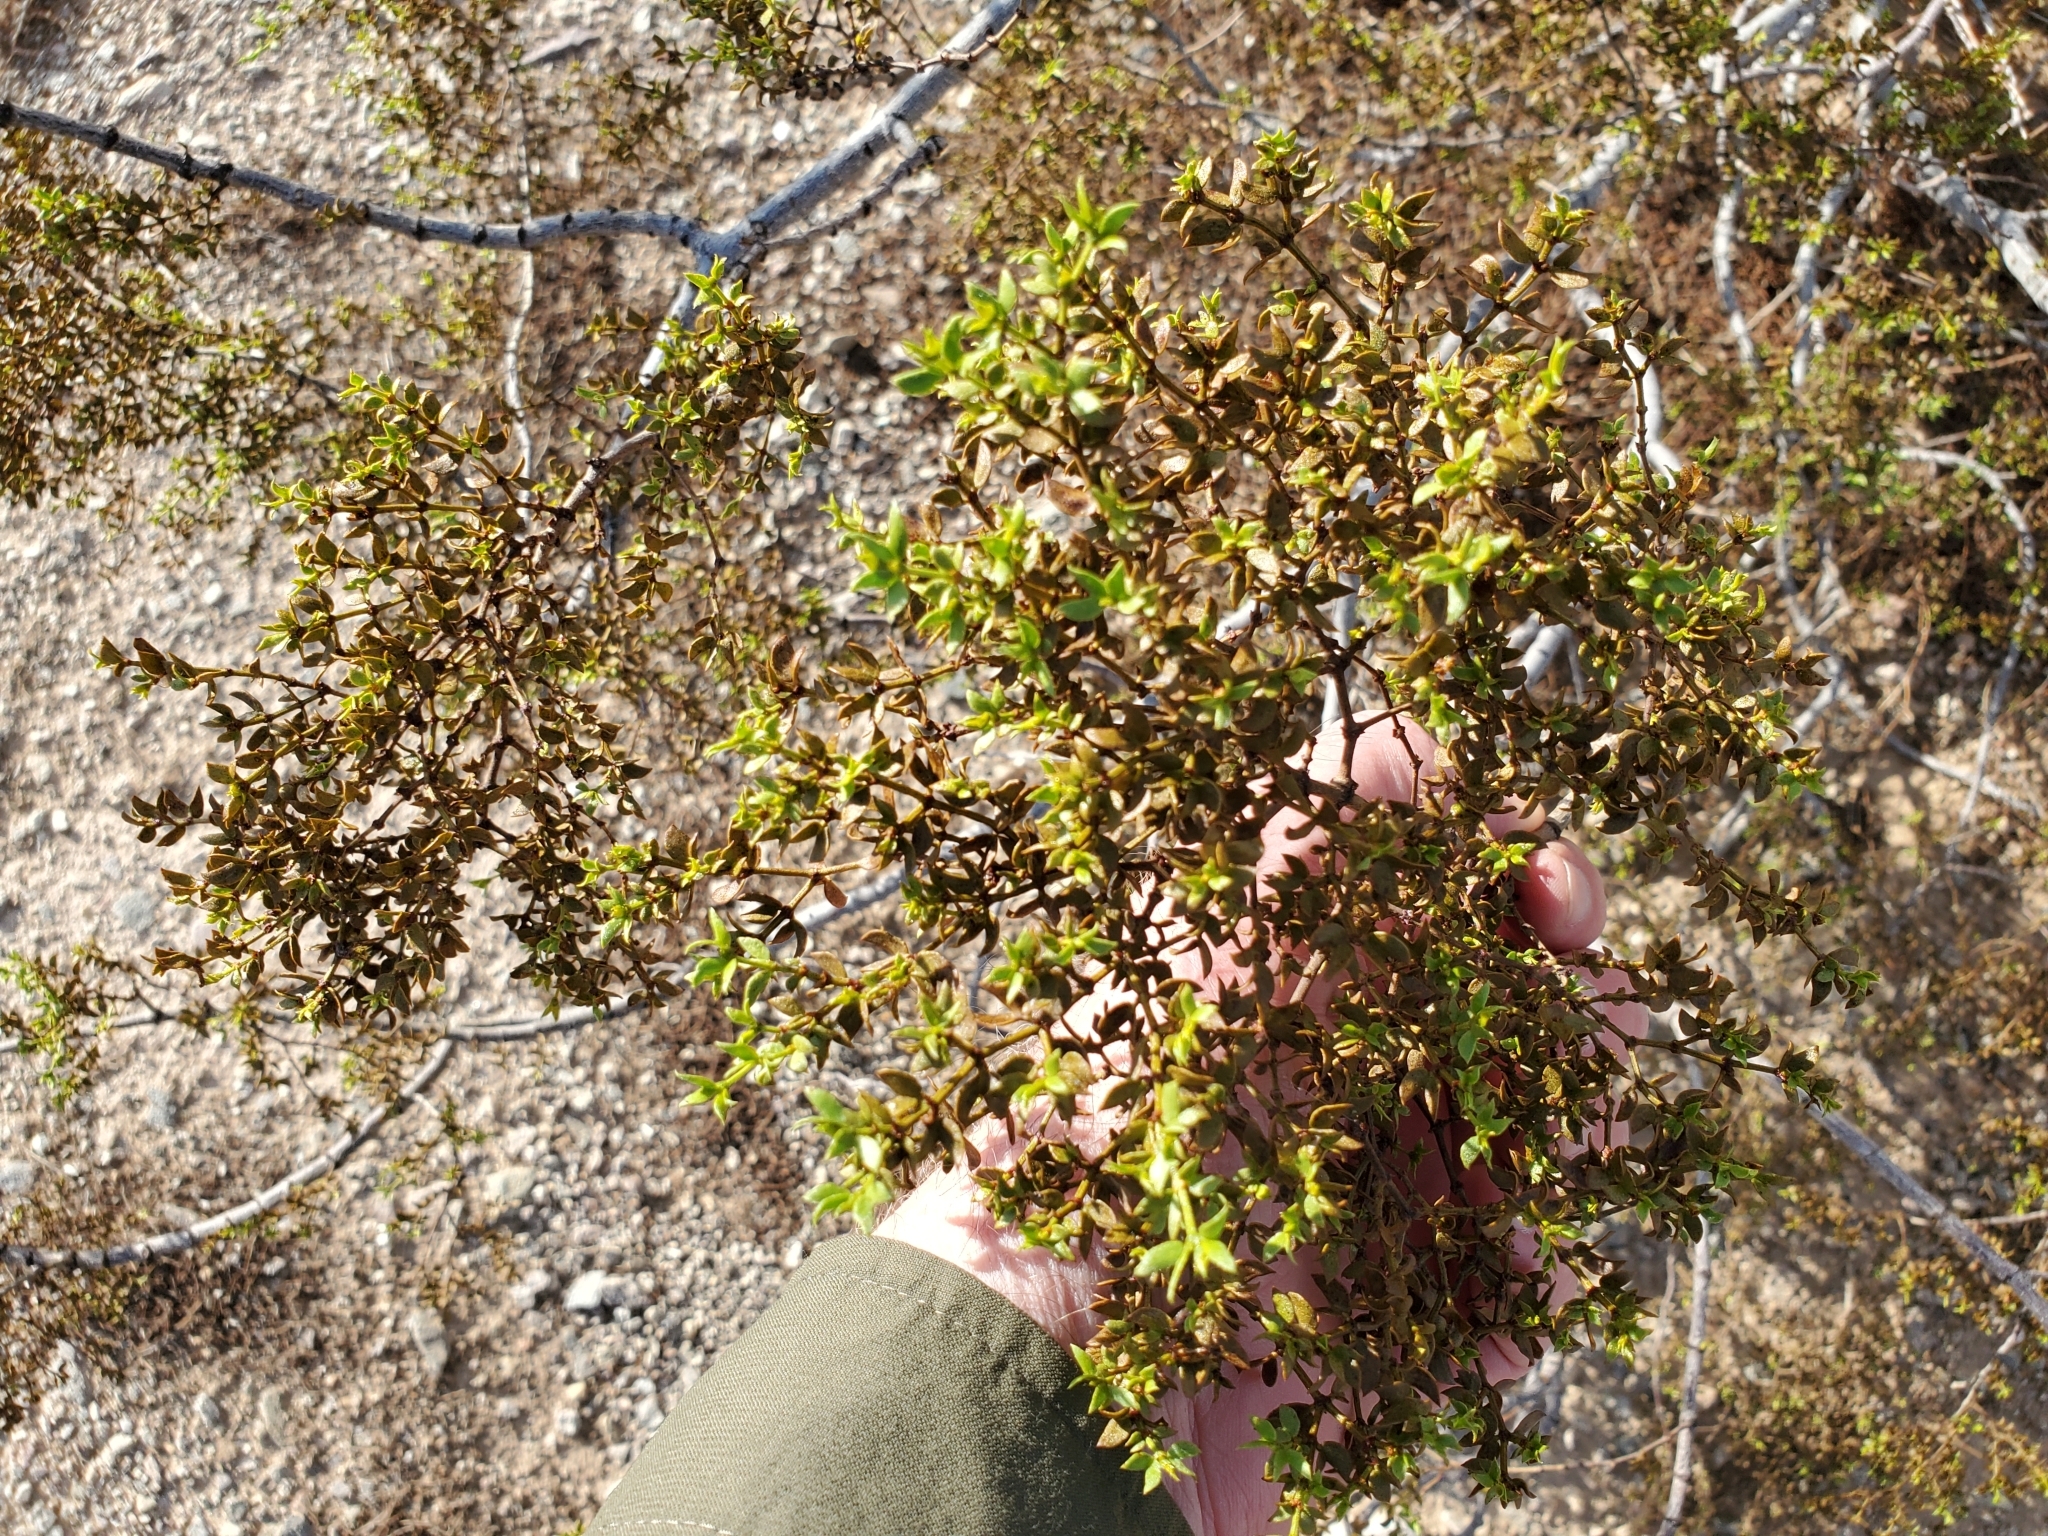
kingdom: Plantae
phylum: Tracheophyta
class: Magnoliopsida
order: Zygophyllales
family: Zygophyllaceae
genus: Larrea
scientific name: Larrea tridentata
